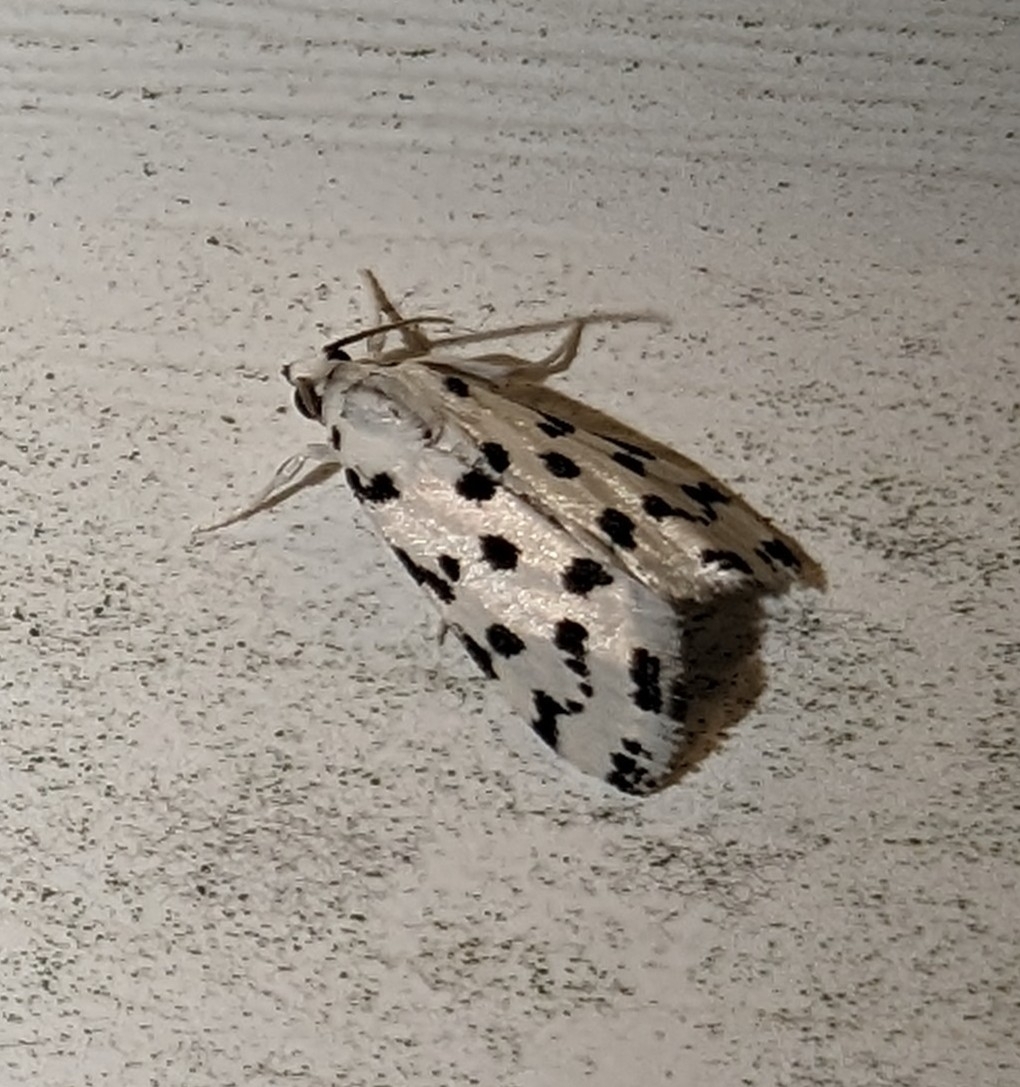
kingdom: Animalia
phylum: Arthropoda
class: Insecta
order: Lepidoptera
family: Crambidae
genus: Eustixia
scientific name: Eustixia pupula
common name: American cabbage pearl
